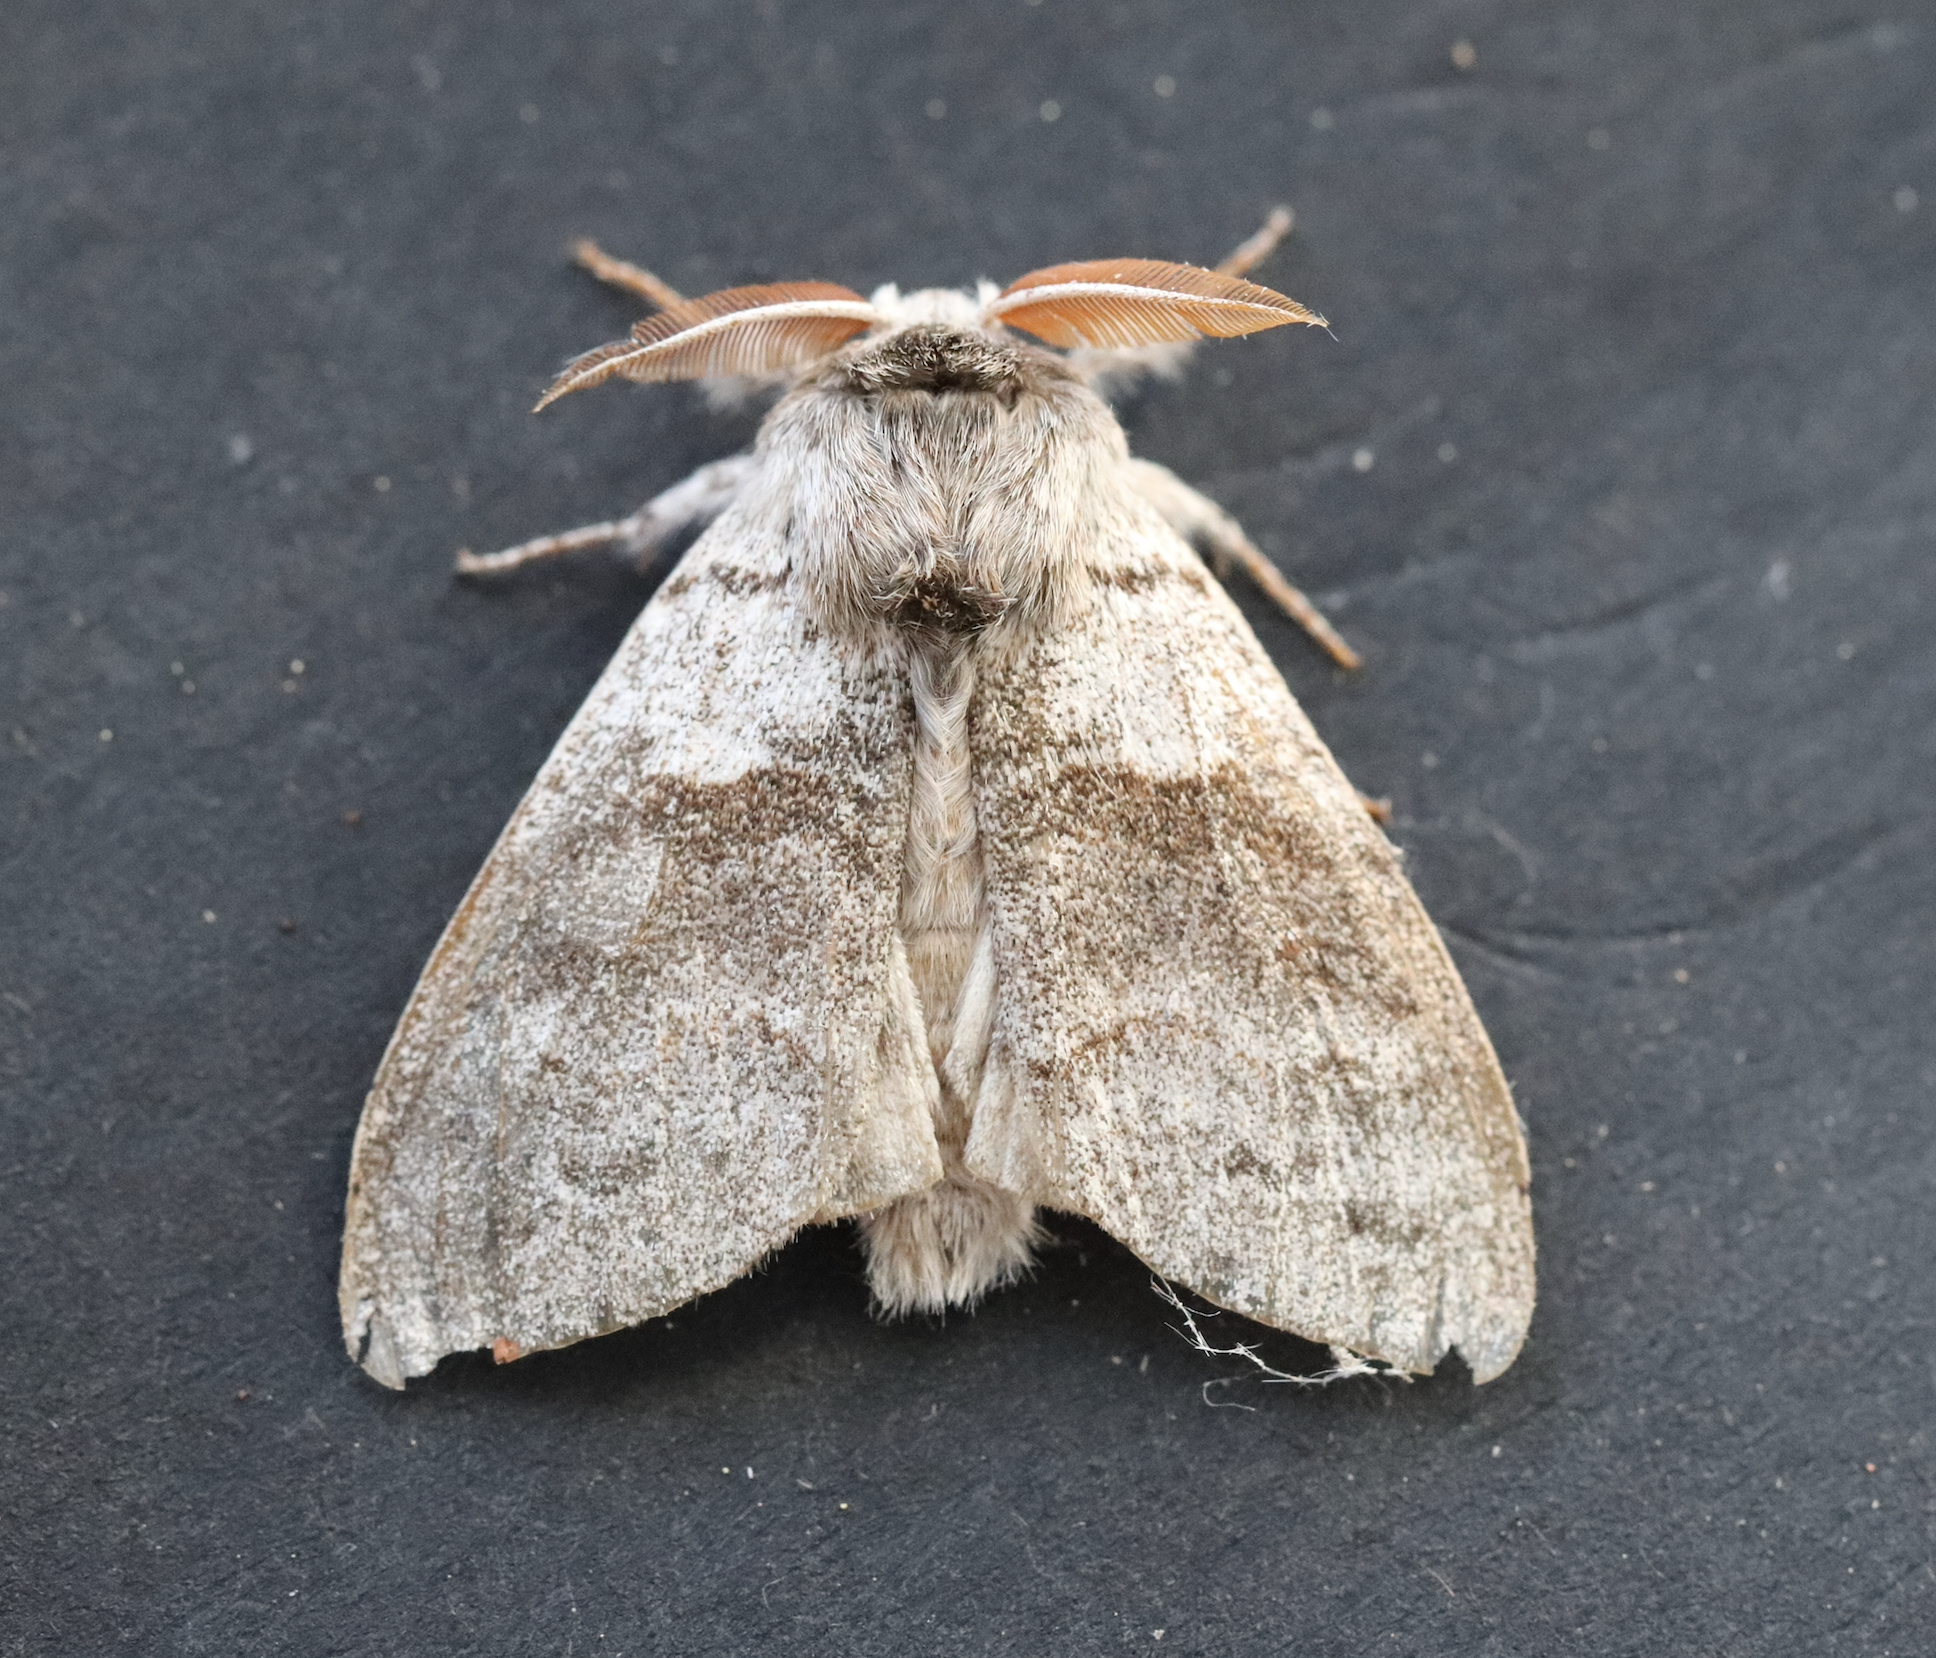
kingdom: Animalia
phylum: Arthropoda
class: Insecta
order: Lepidoptera
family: Erebidae
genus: Calliteara
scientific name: Calliteara pudibunda
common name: Pale tussock
